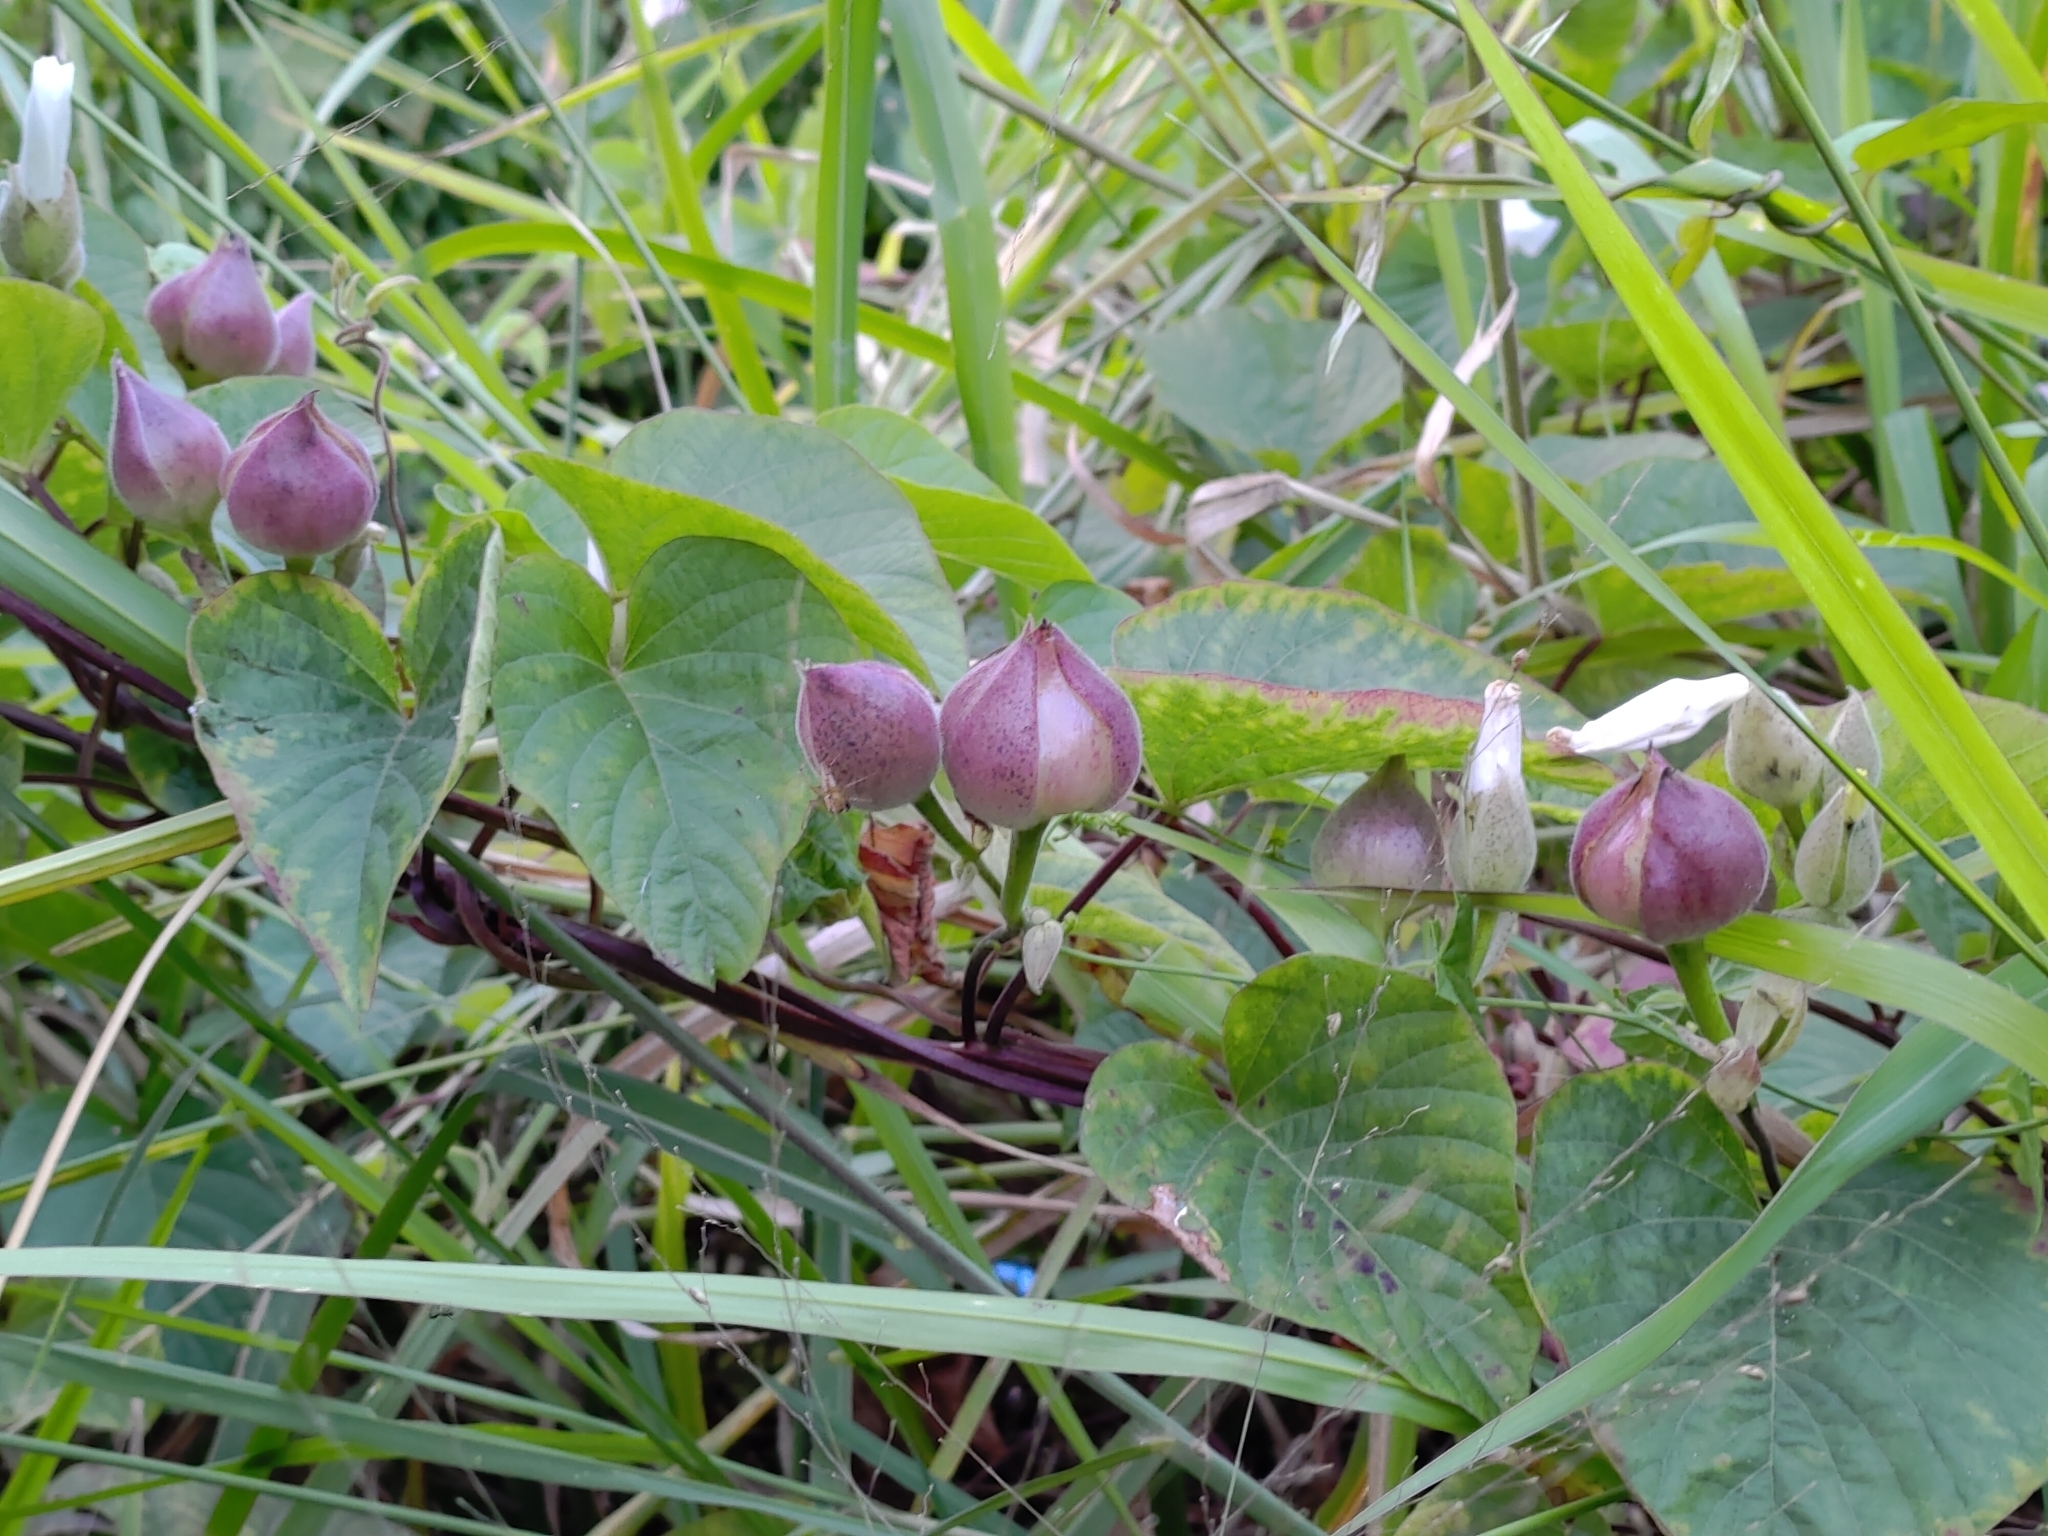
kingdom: Plantae
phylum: Tracheophyta
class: Magnoliopsida
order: Solanales
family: Convolvulaceae
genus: Operculina
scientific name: Operculina turpethum
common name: Transparent wood-rose
